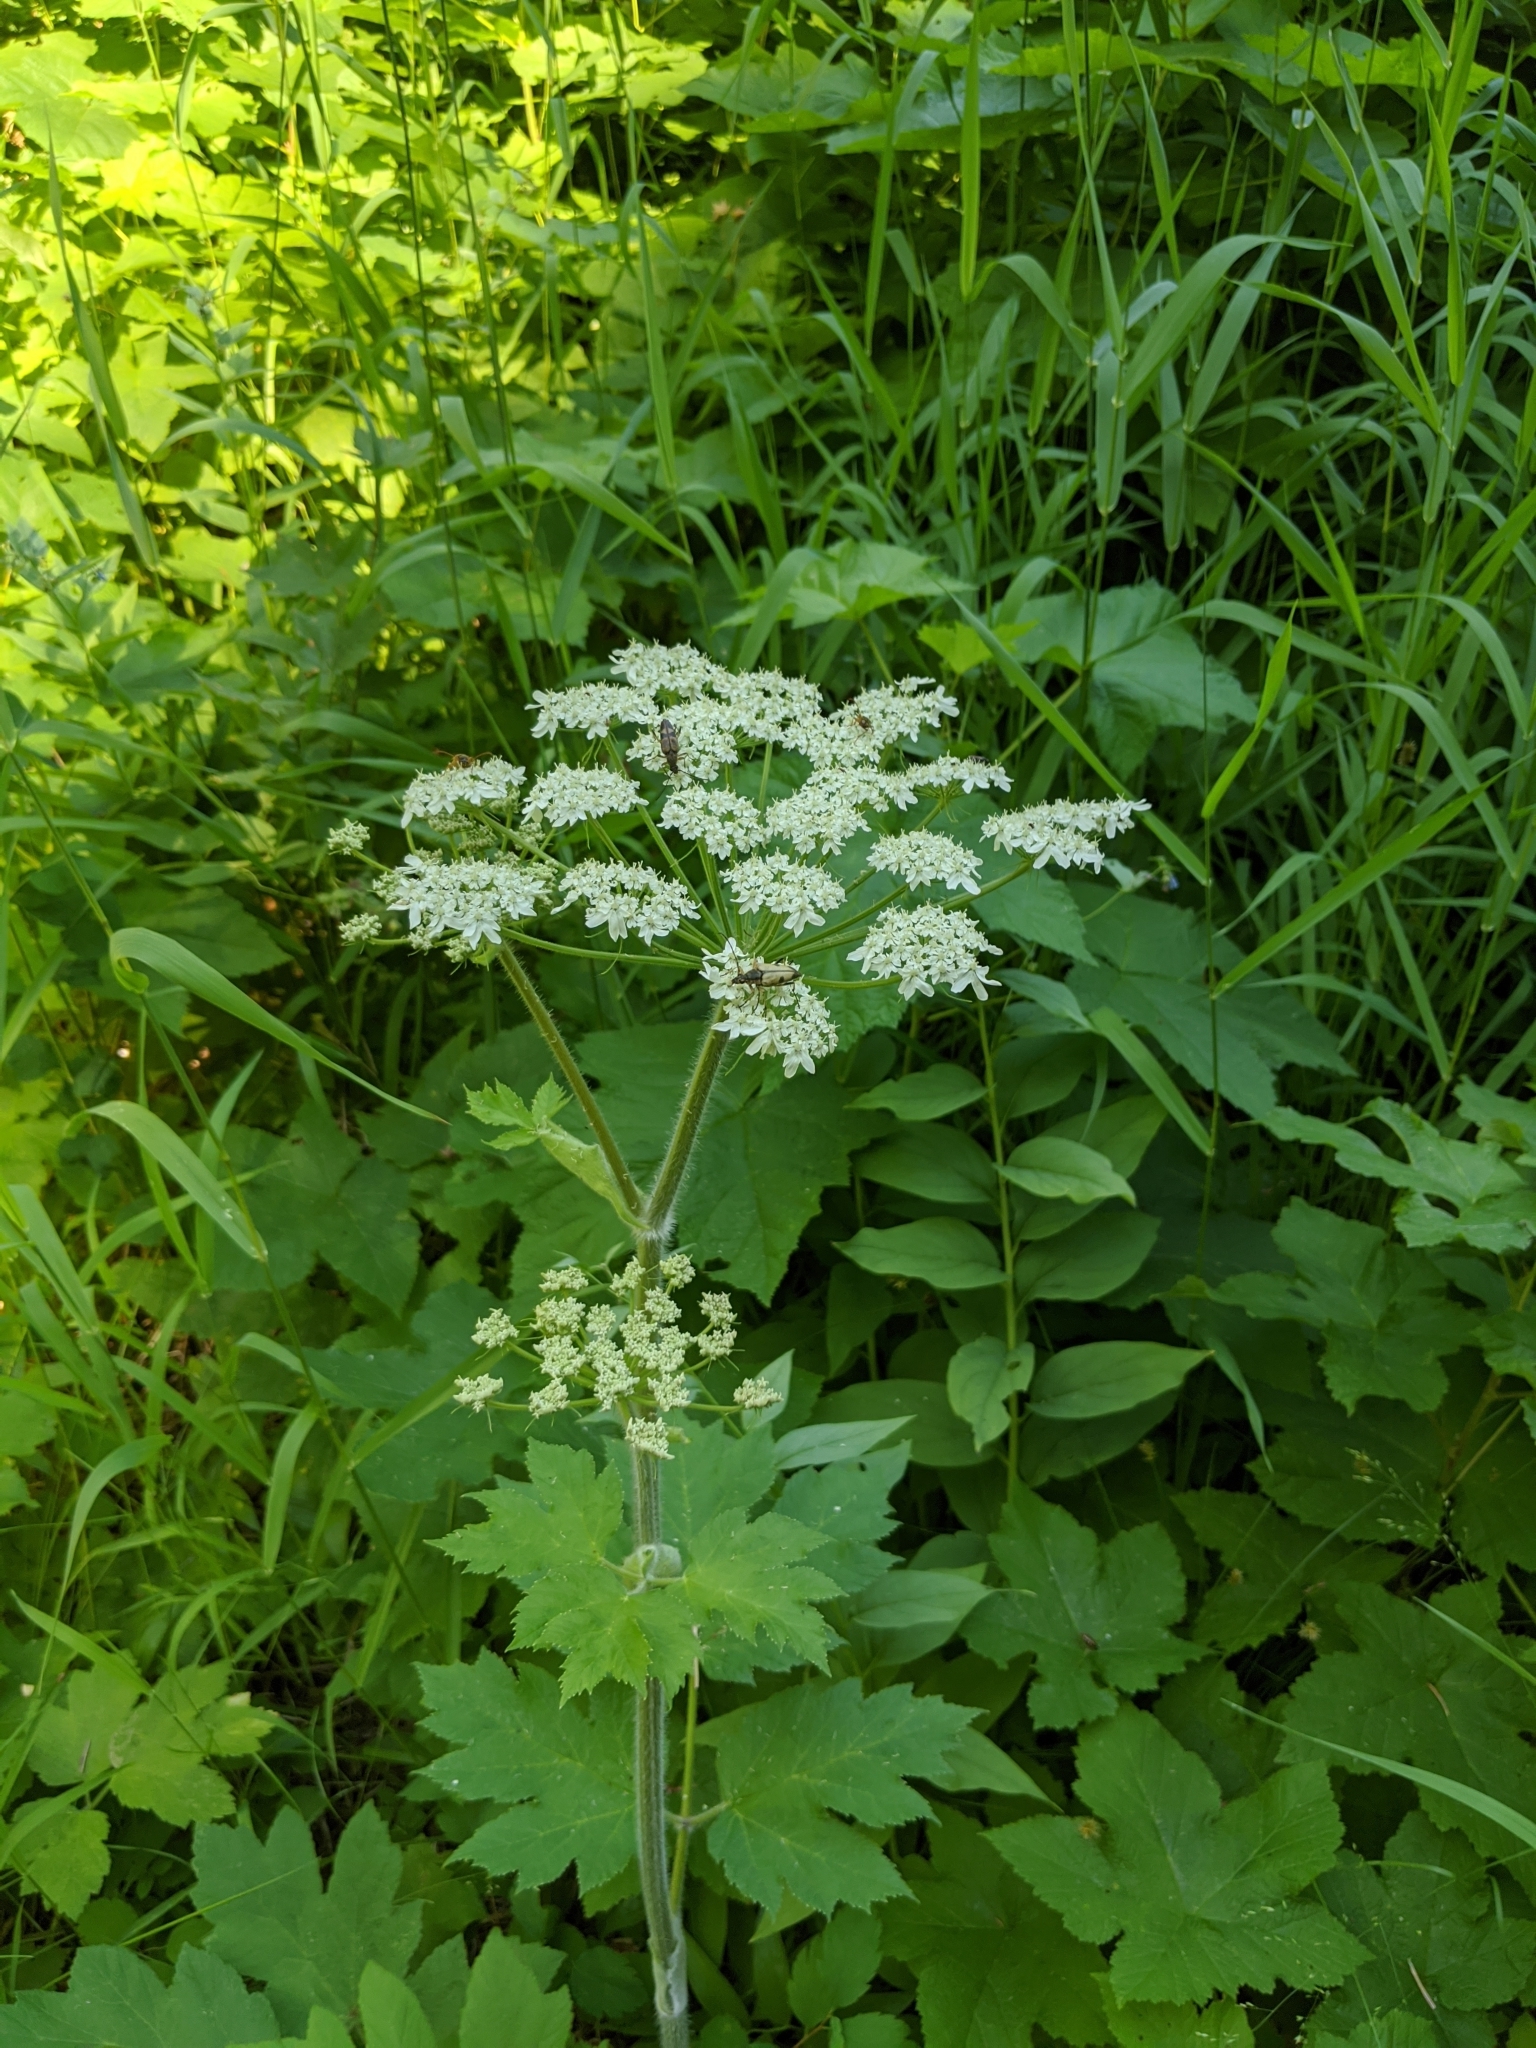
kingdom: Plantae
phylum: Tracheophyta
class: Magnoliopsida
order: Apiales
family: Apiaceae
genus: Heracleum
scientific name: Heracleum maximum
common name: American cow parsnip
